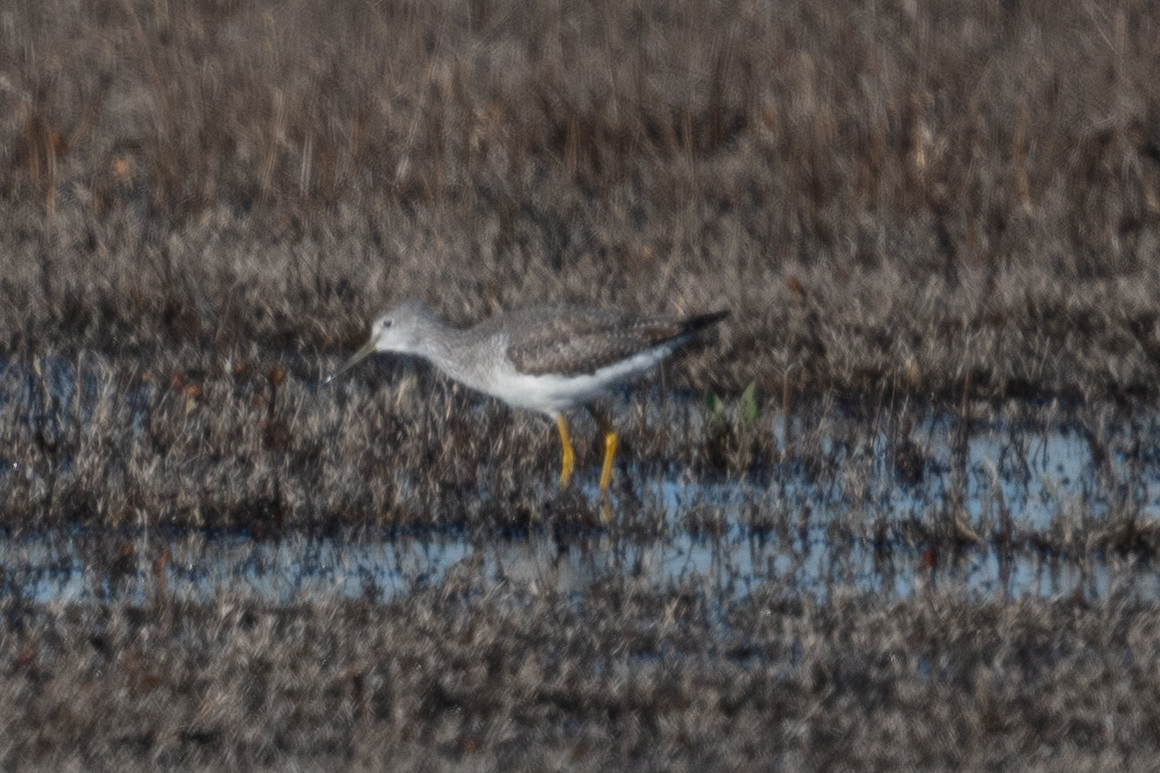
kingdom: Animalia
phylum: Chordata
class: Aves
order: Charadriiformes
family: Scolopacidae
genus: Tringa
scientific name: Tringa melanoleuca
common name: Greater yellowlegs
